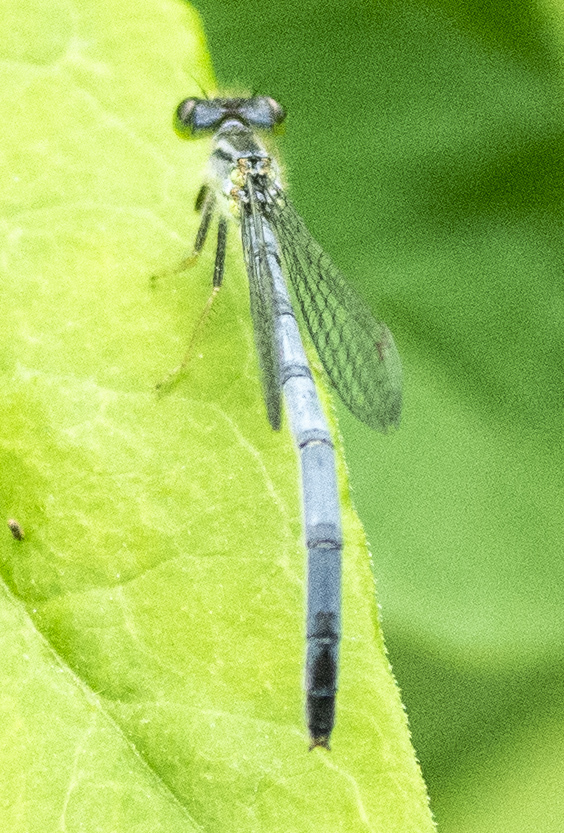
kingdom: Animalia
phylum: Arthropoda
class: Insecta
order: Odonata
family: Coenagrionidae
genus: Ischnura
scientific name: Ischnura verticalis
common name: Eastern forktail
